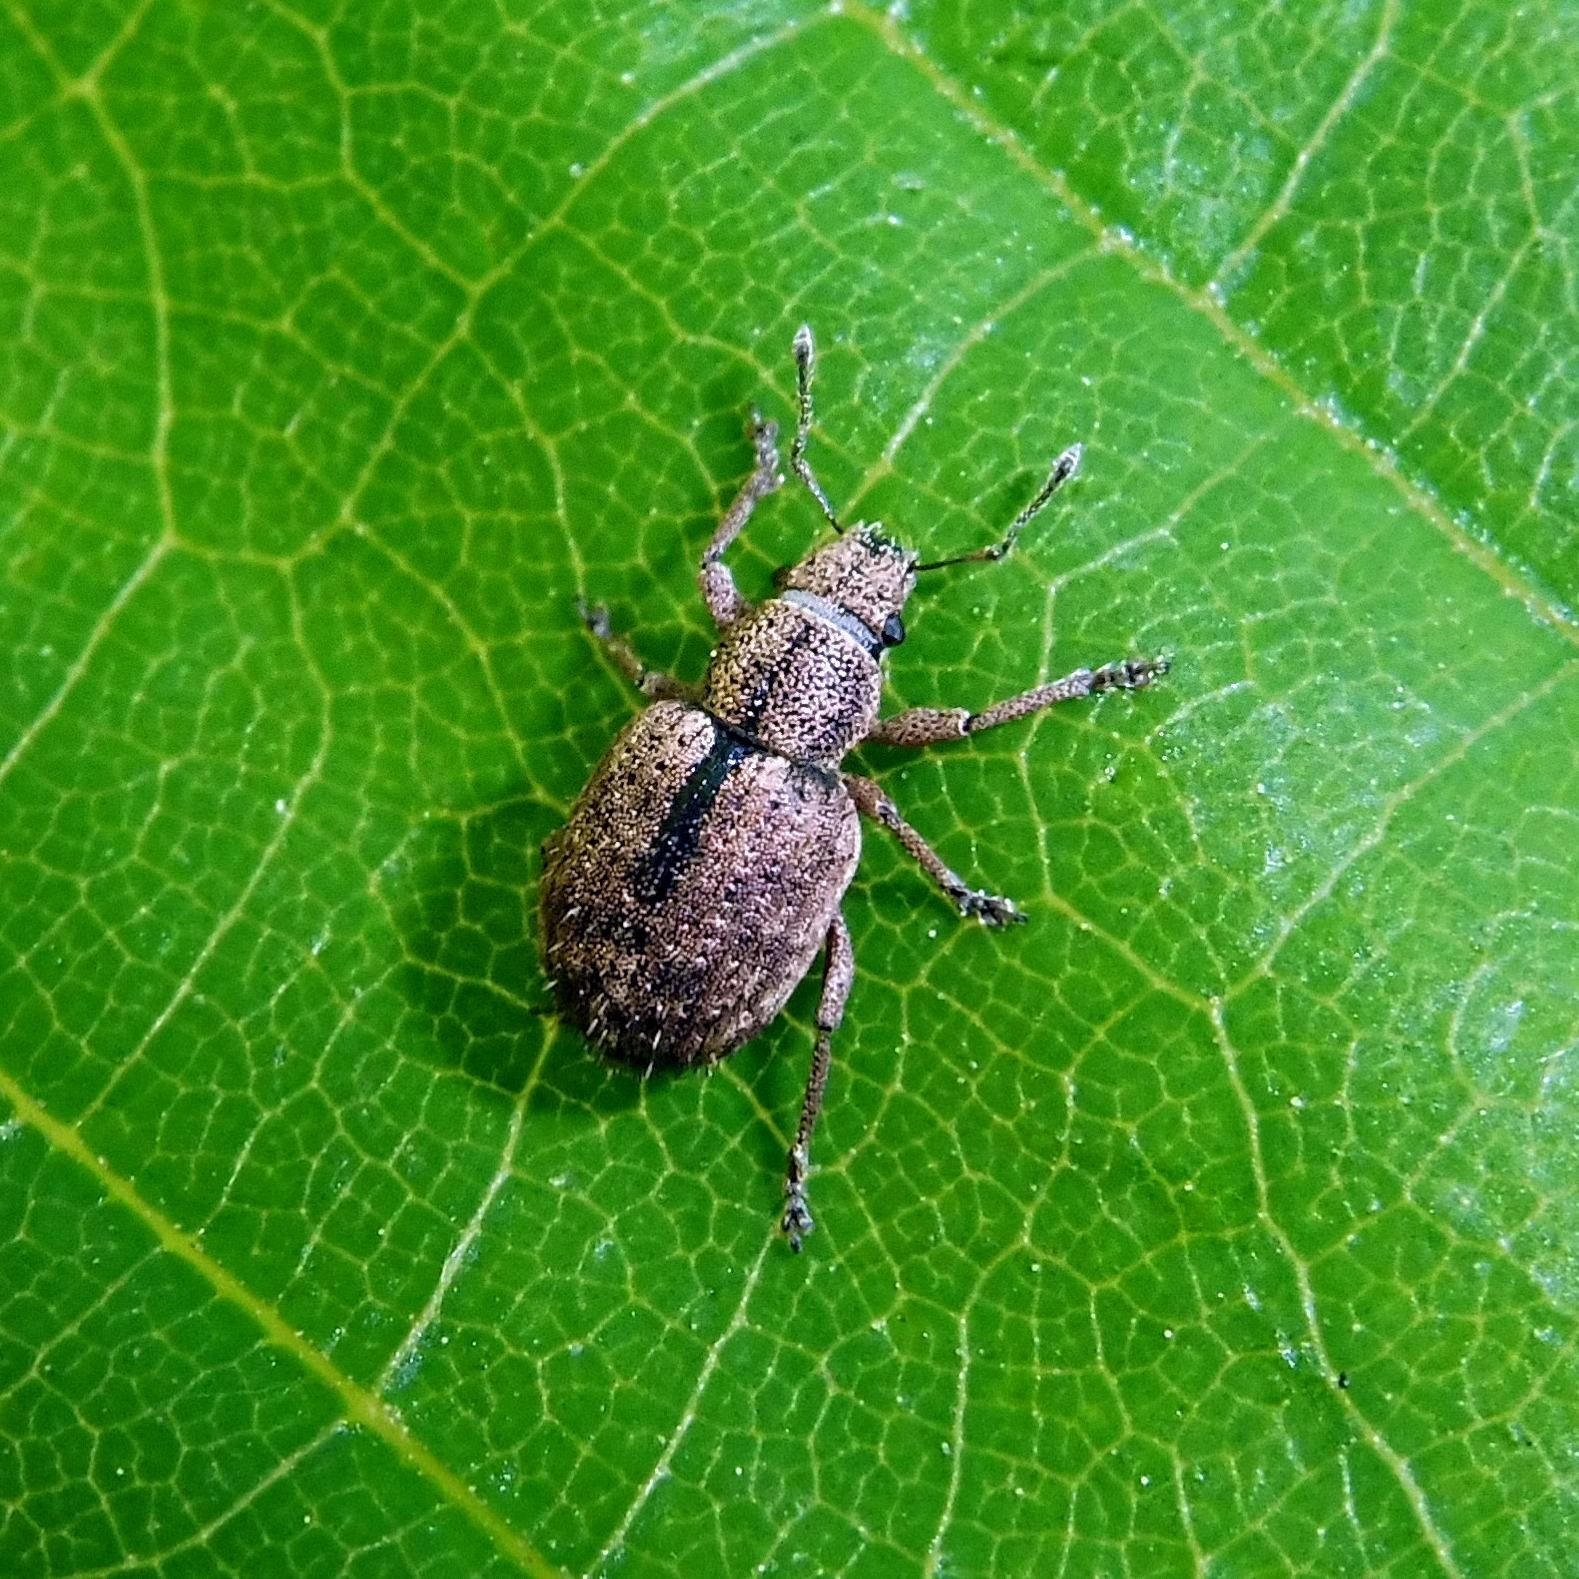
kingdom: Animalia
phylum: Arthropoda
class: Insecta
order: Coleoptera
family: Curculionidae
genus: Strophosoma
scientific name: Strophosoma melanogrammum
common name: Weevil
